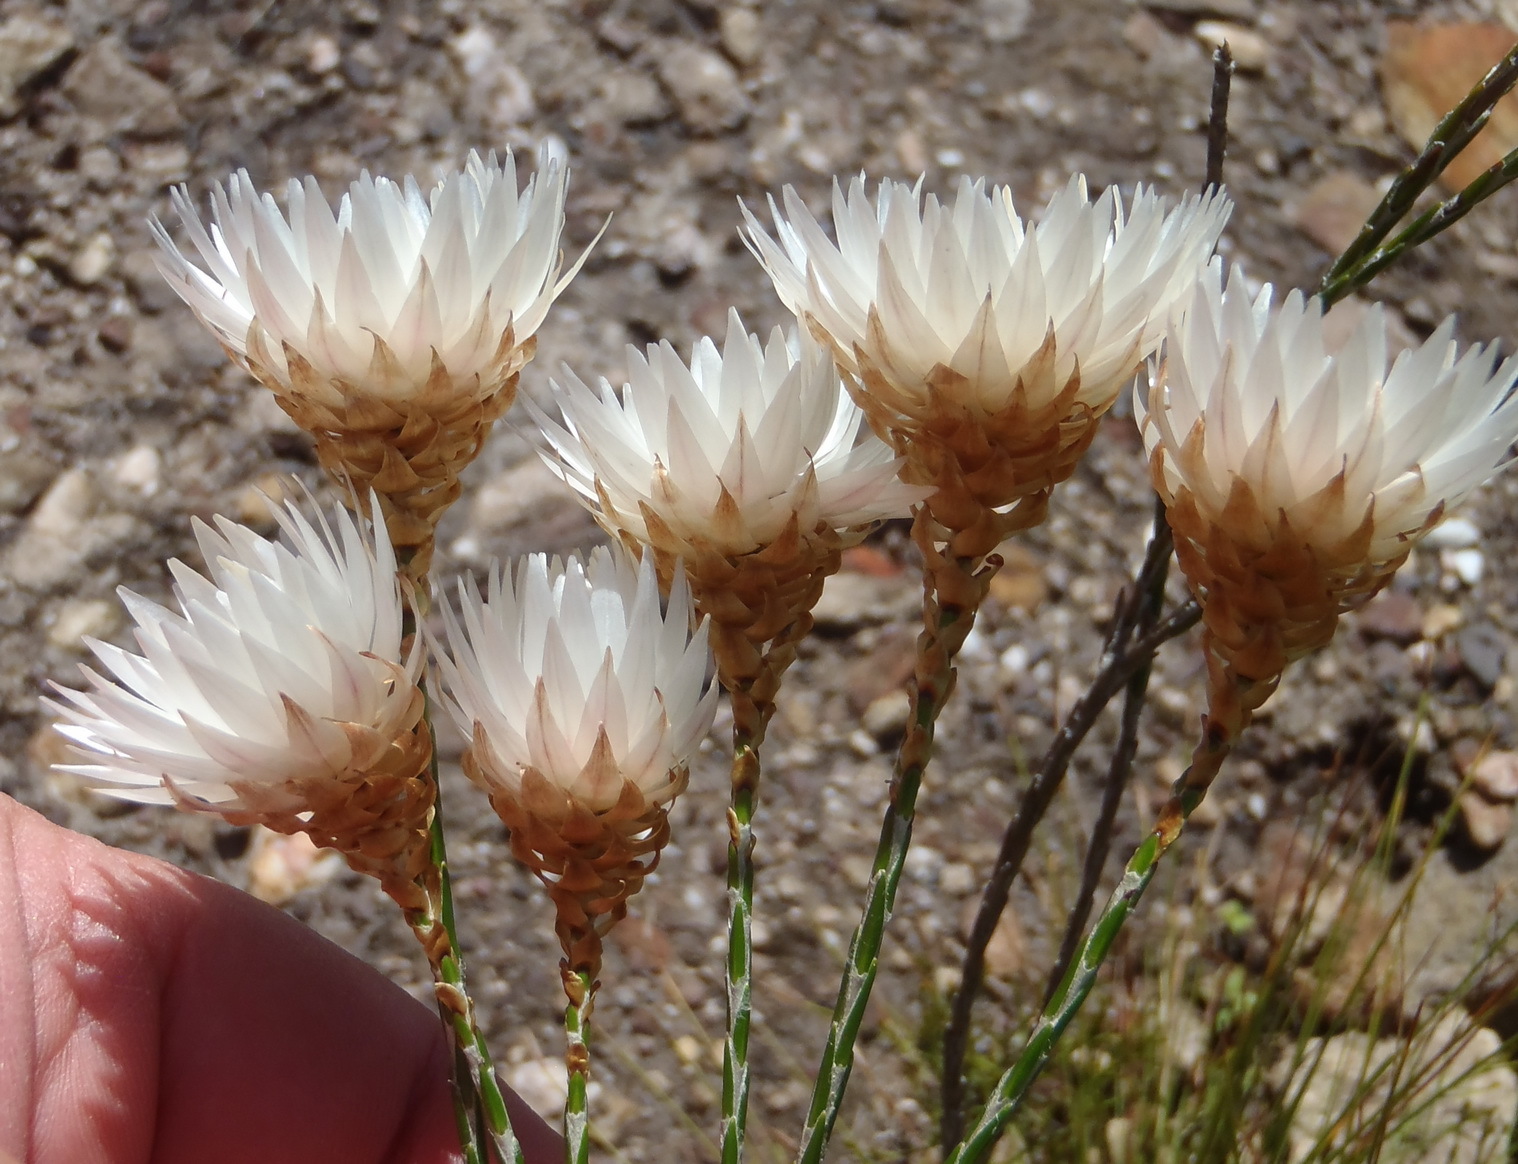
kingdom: Plantae
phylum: Tracheophyta
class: Magnoliopsida
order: Asterales
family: Asteraceae
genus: Edmondia
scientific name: Edmondia sesamoides
